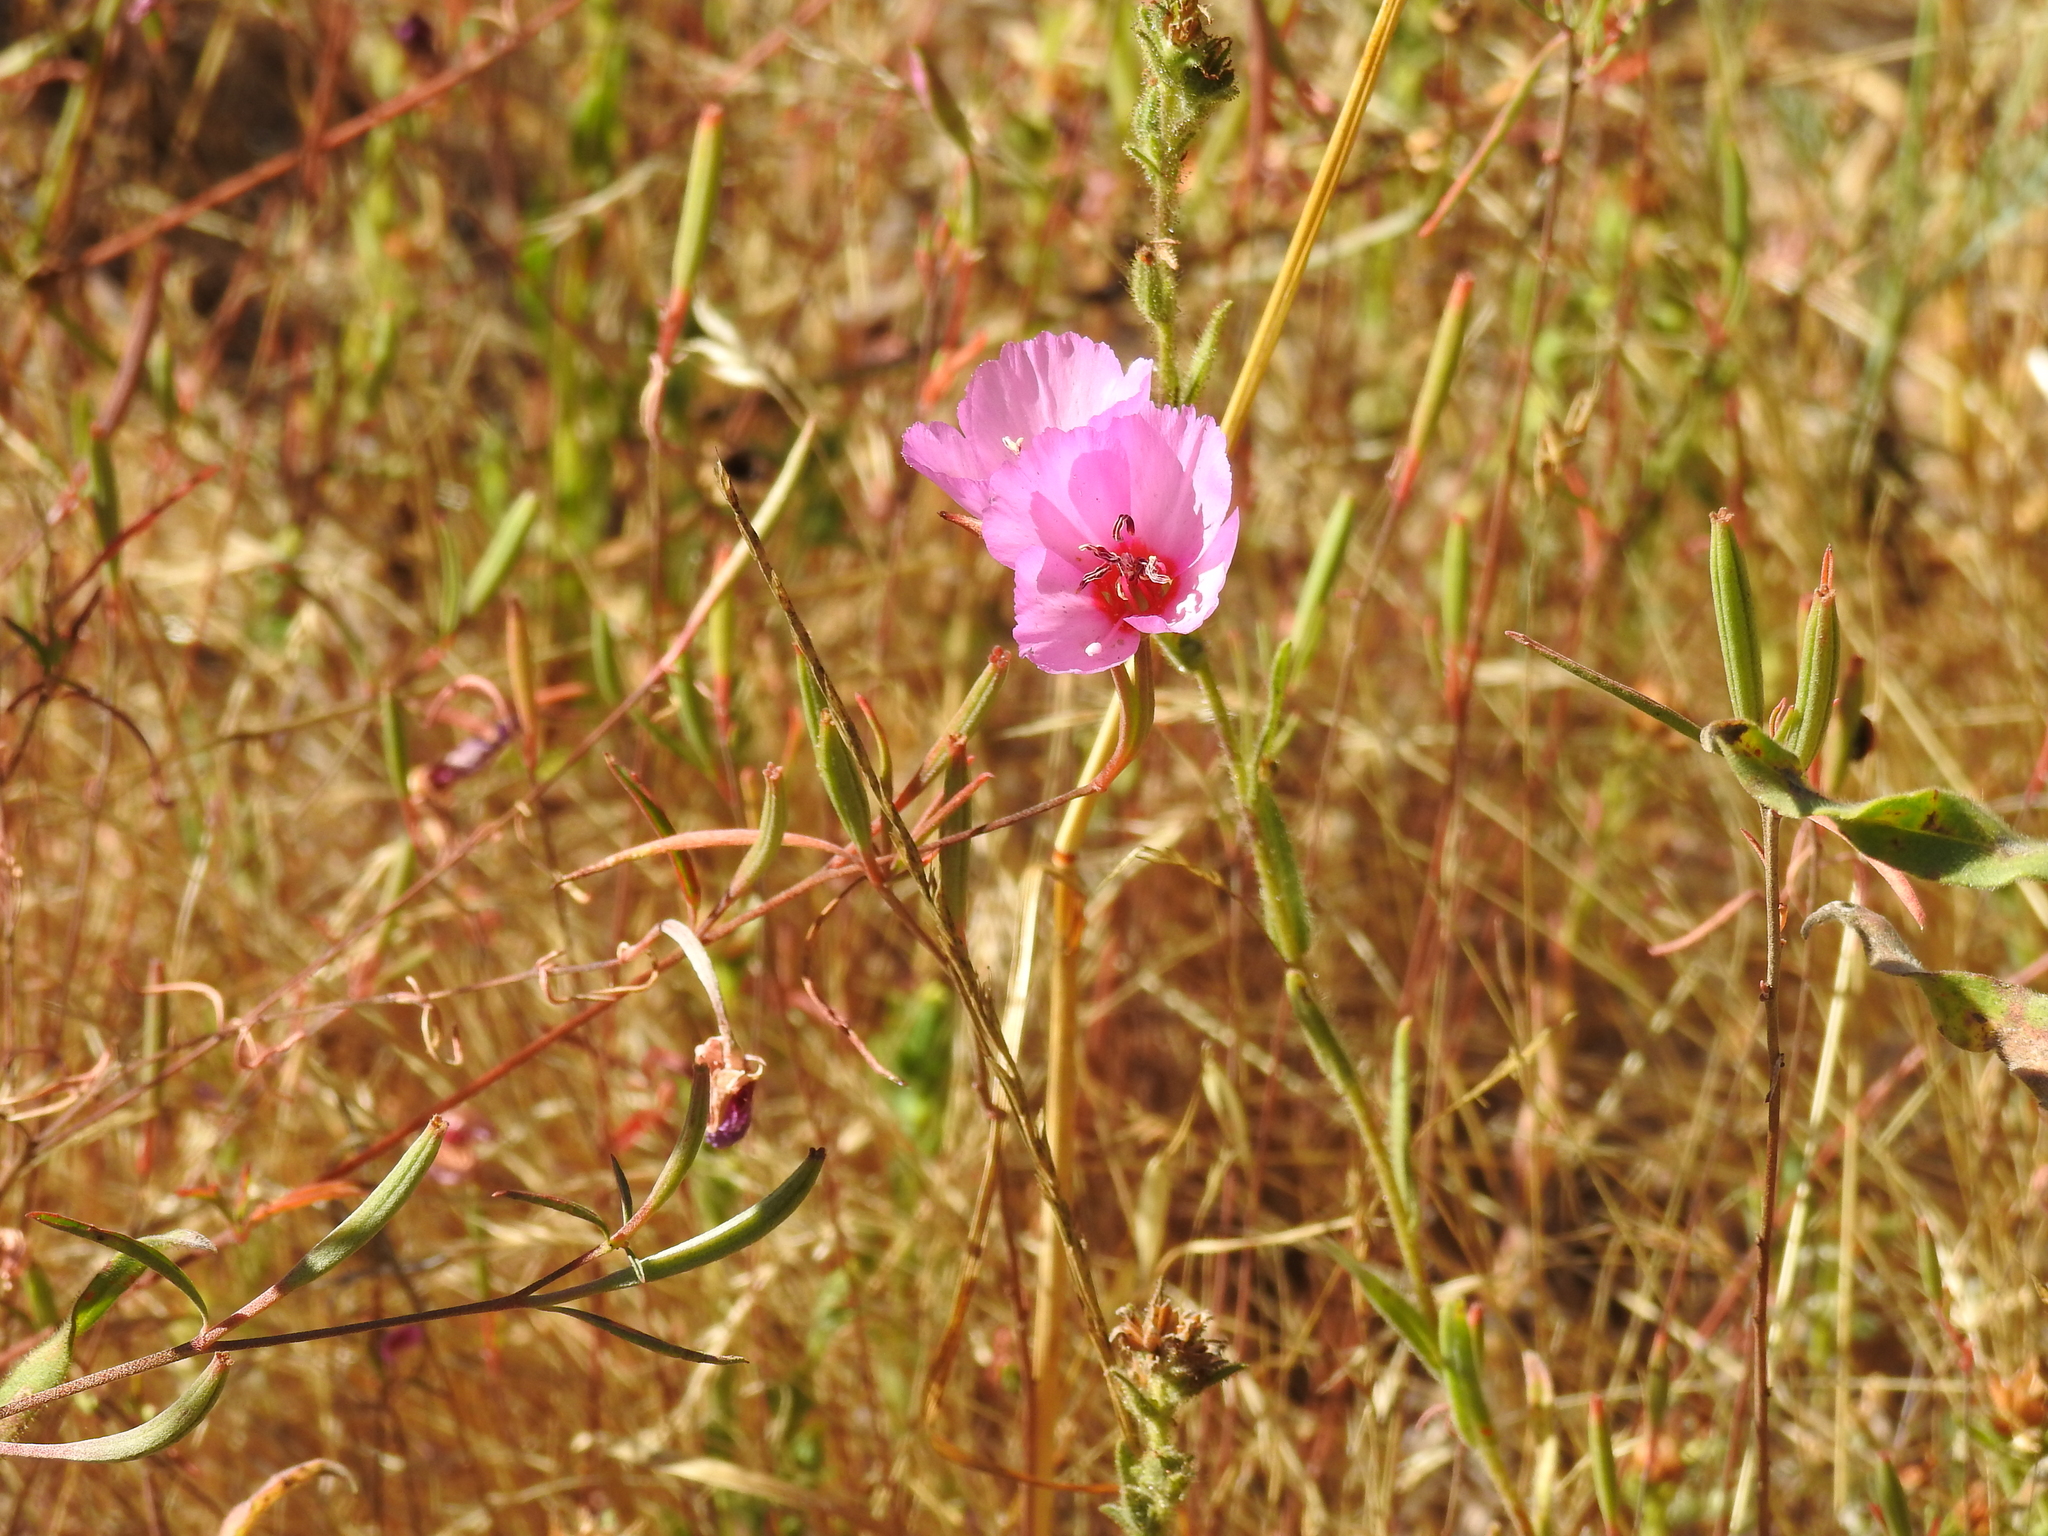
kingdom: Plantae
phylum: Tracheophyta
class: Magnoliopsida
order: Myrtales
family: Onagraceae
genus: Clarkia
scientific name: Clarkia rubicunda
